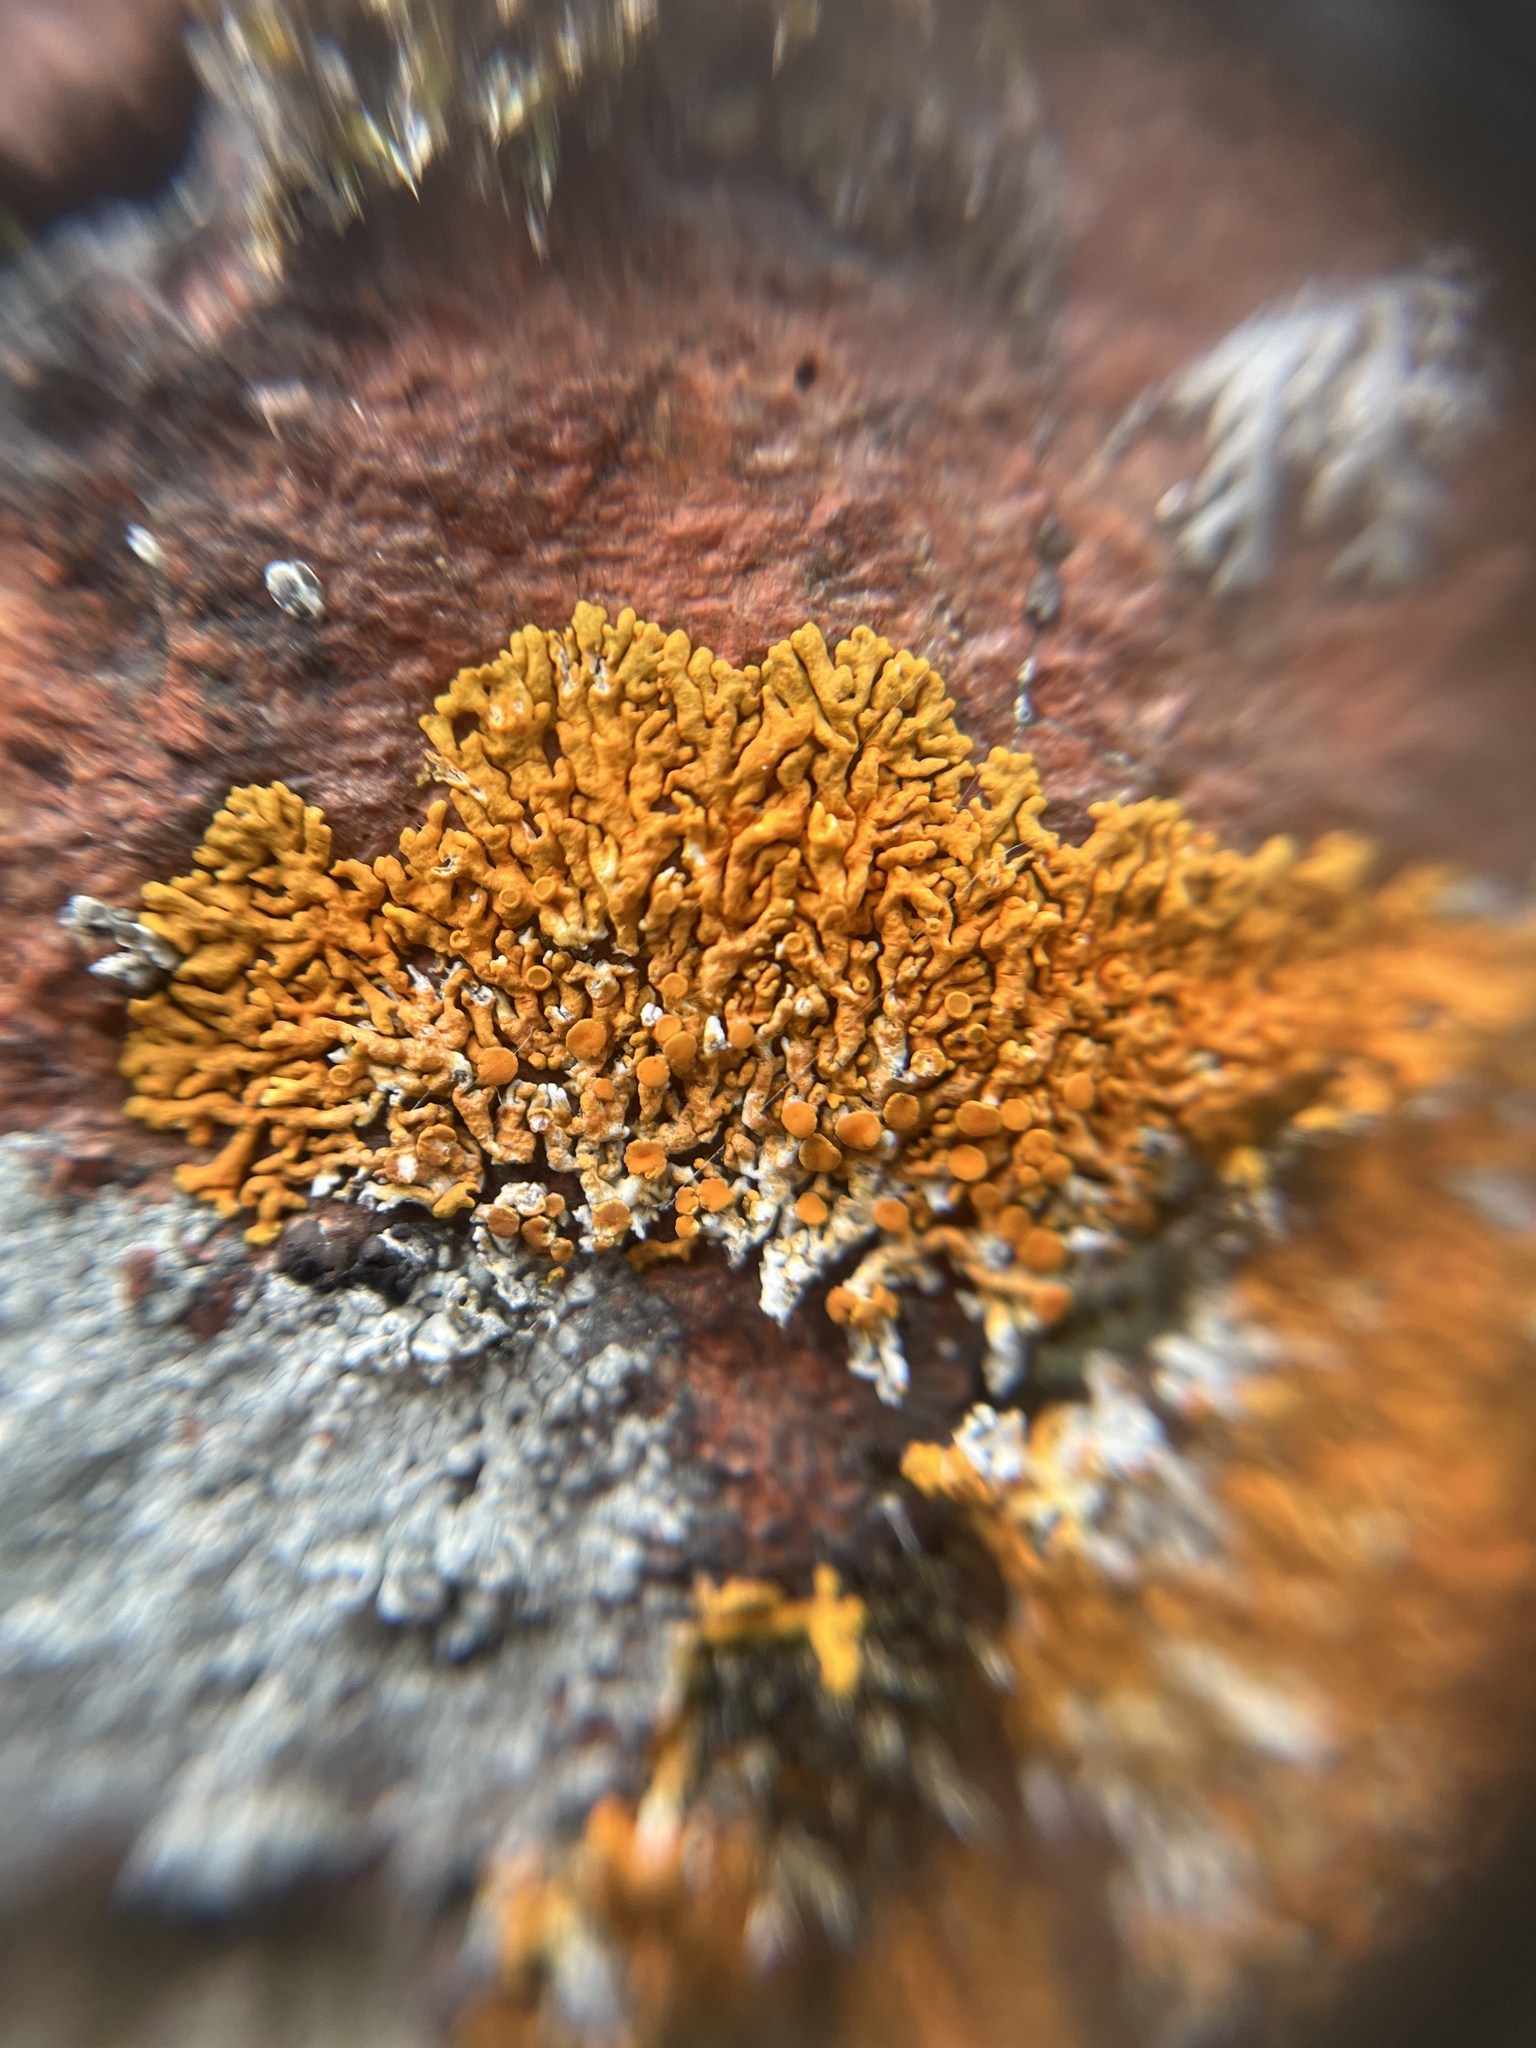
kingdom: Fungi
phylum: Ascomycota
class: Lecanoromycetes
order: Teloschistales
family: Teloschistaceae
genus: Xanthoria
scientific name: Xanthoria elegans
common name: Elegant sunburst lichen
